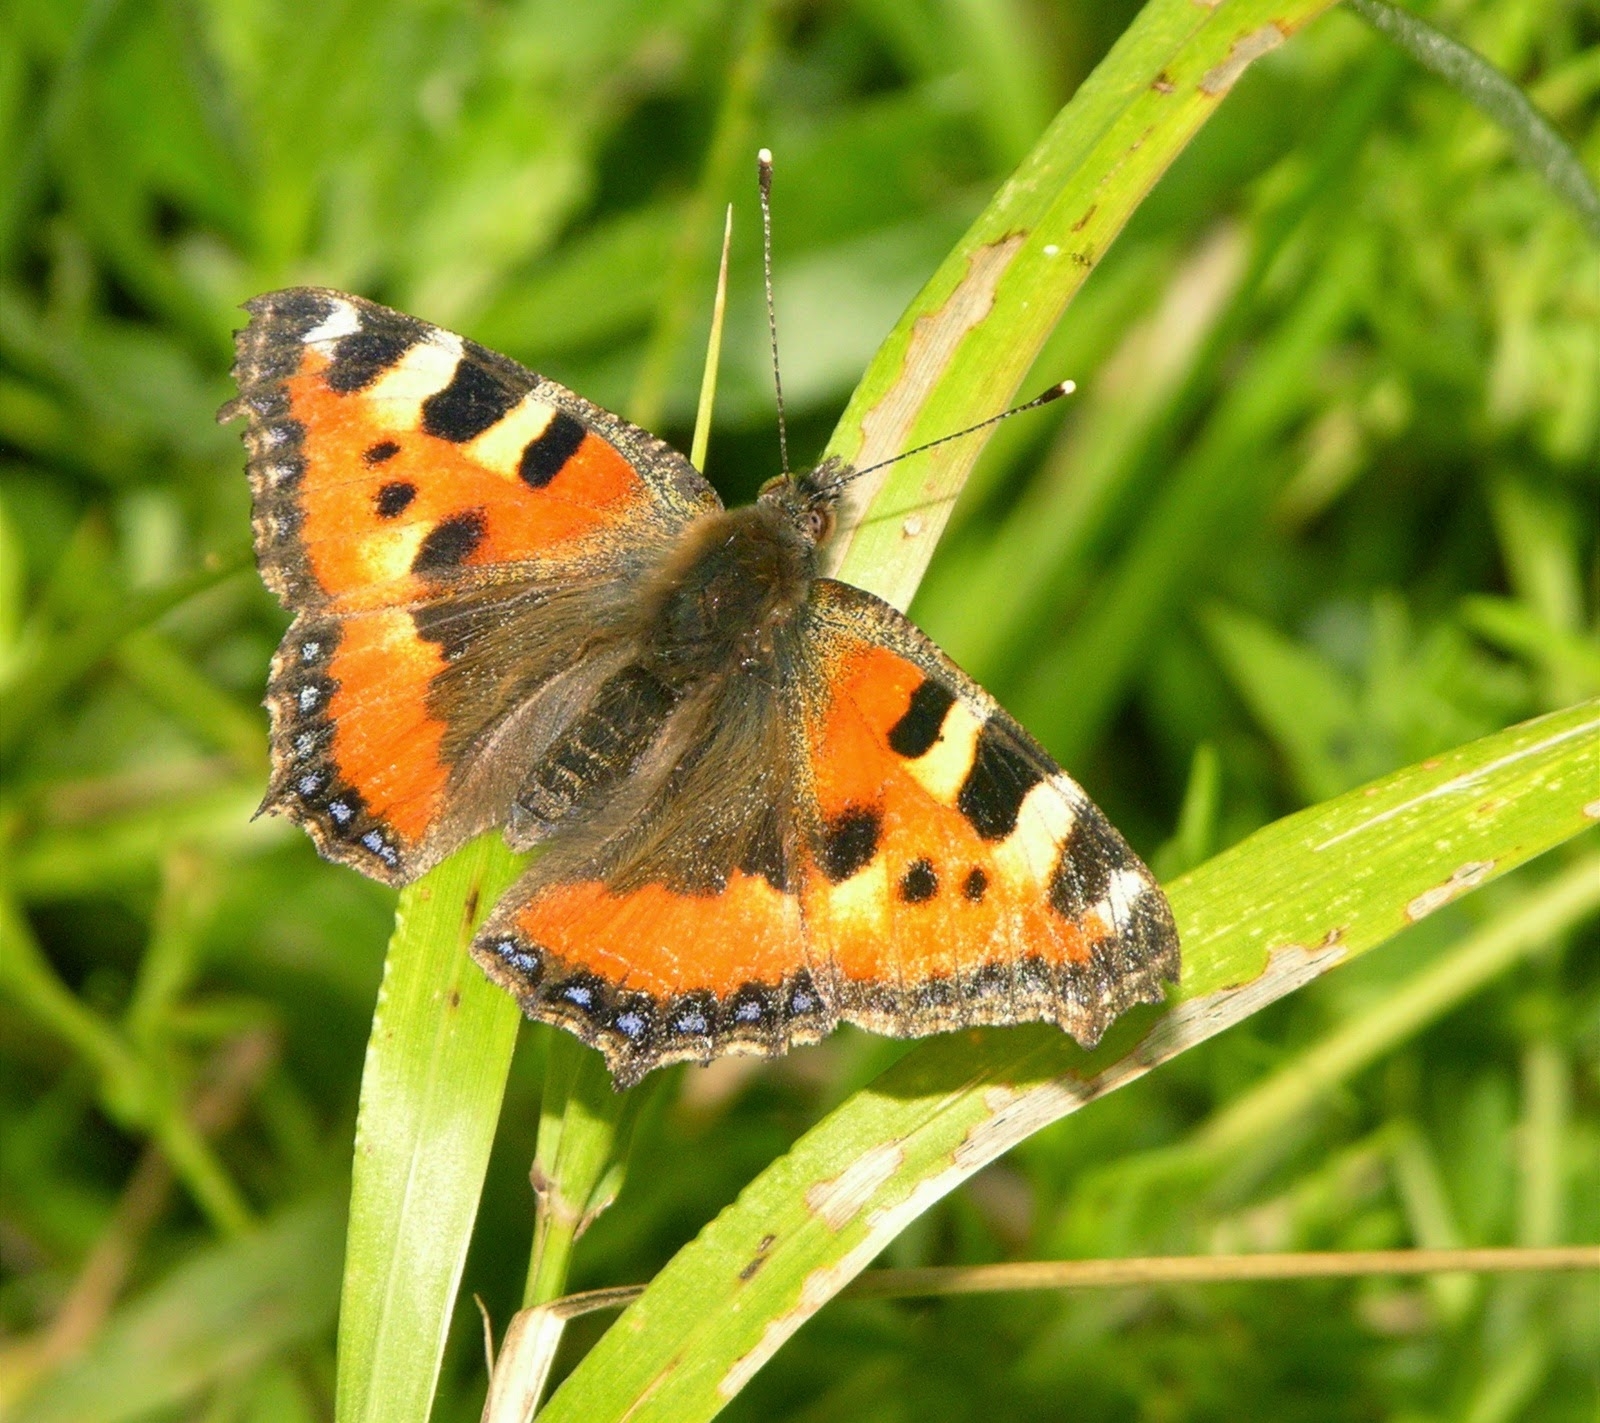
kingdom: Animalia
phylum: Arthropoda
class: Insecta
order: Lepidoptera
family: Nymphalidae
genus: Aglais
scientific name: Aglais urticae
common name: Small tortoiseshell
